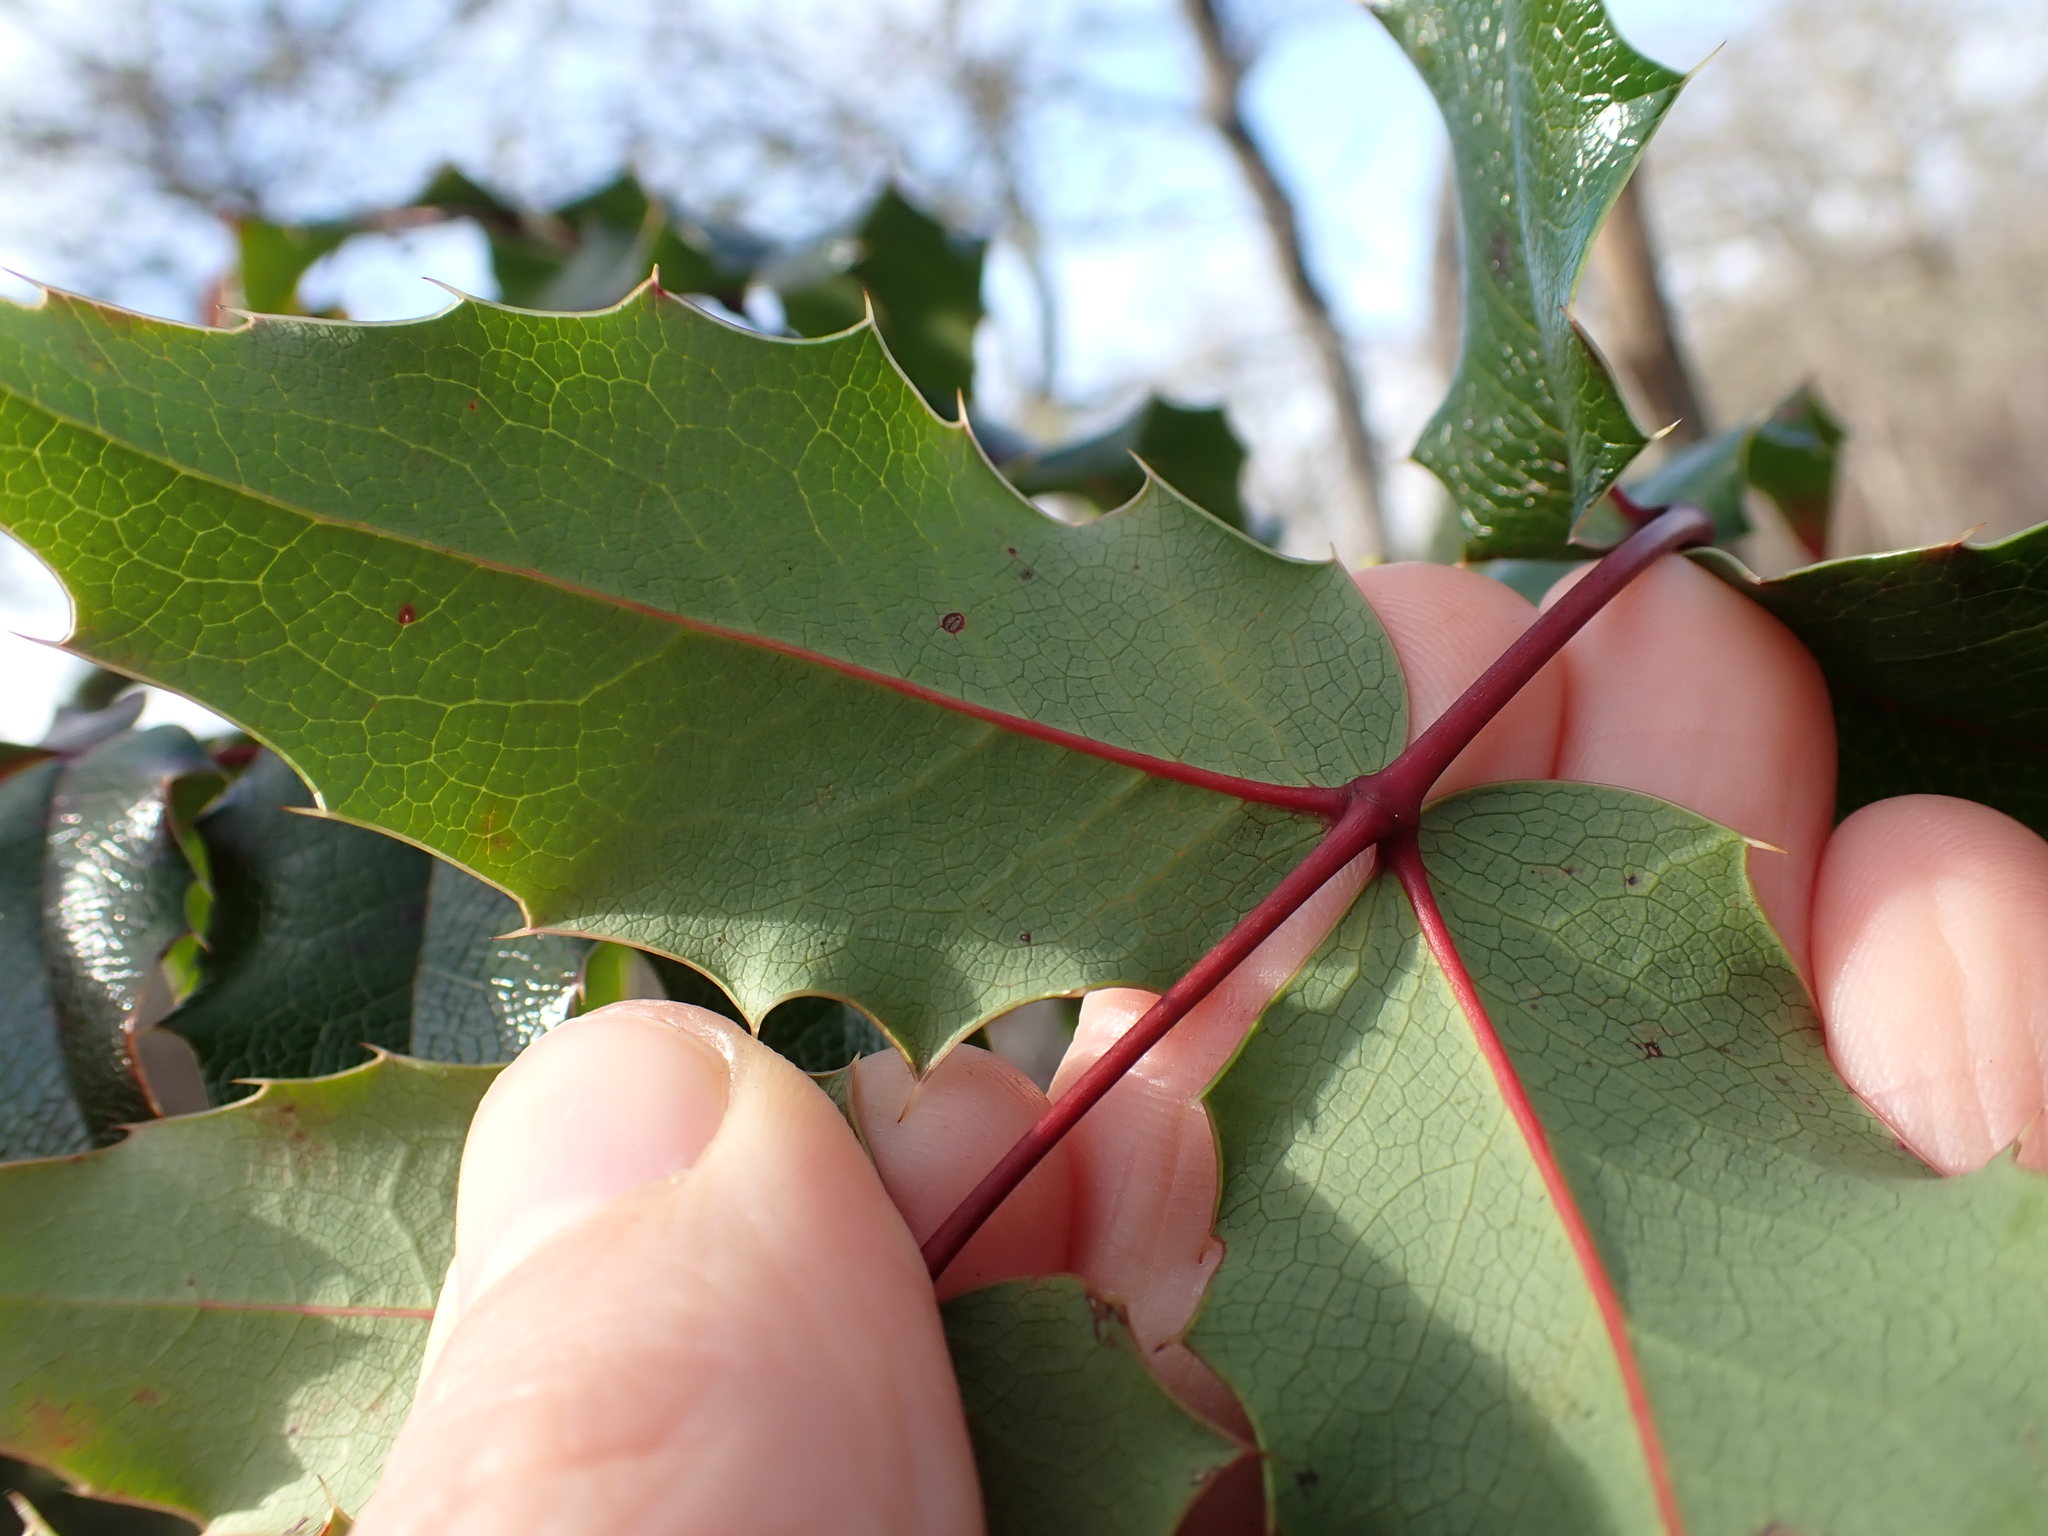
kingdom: Plantae
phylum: Tracheophyta
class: Magnoliopsida
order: Ranunculales
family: Berberidaceae
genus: Mahonia
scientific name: Mahonia aquifolium
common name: Oregon-grape
